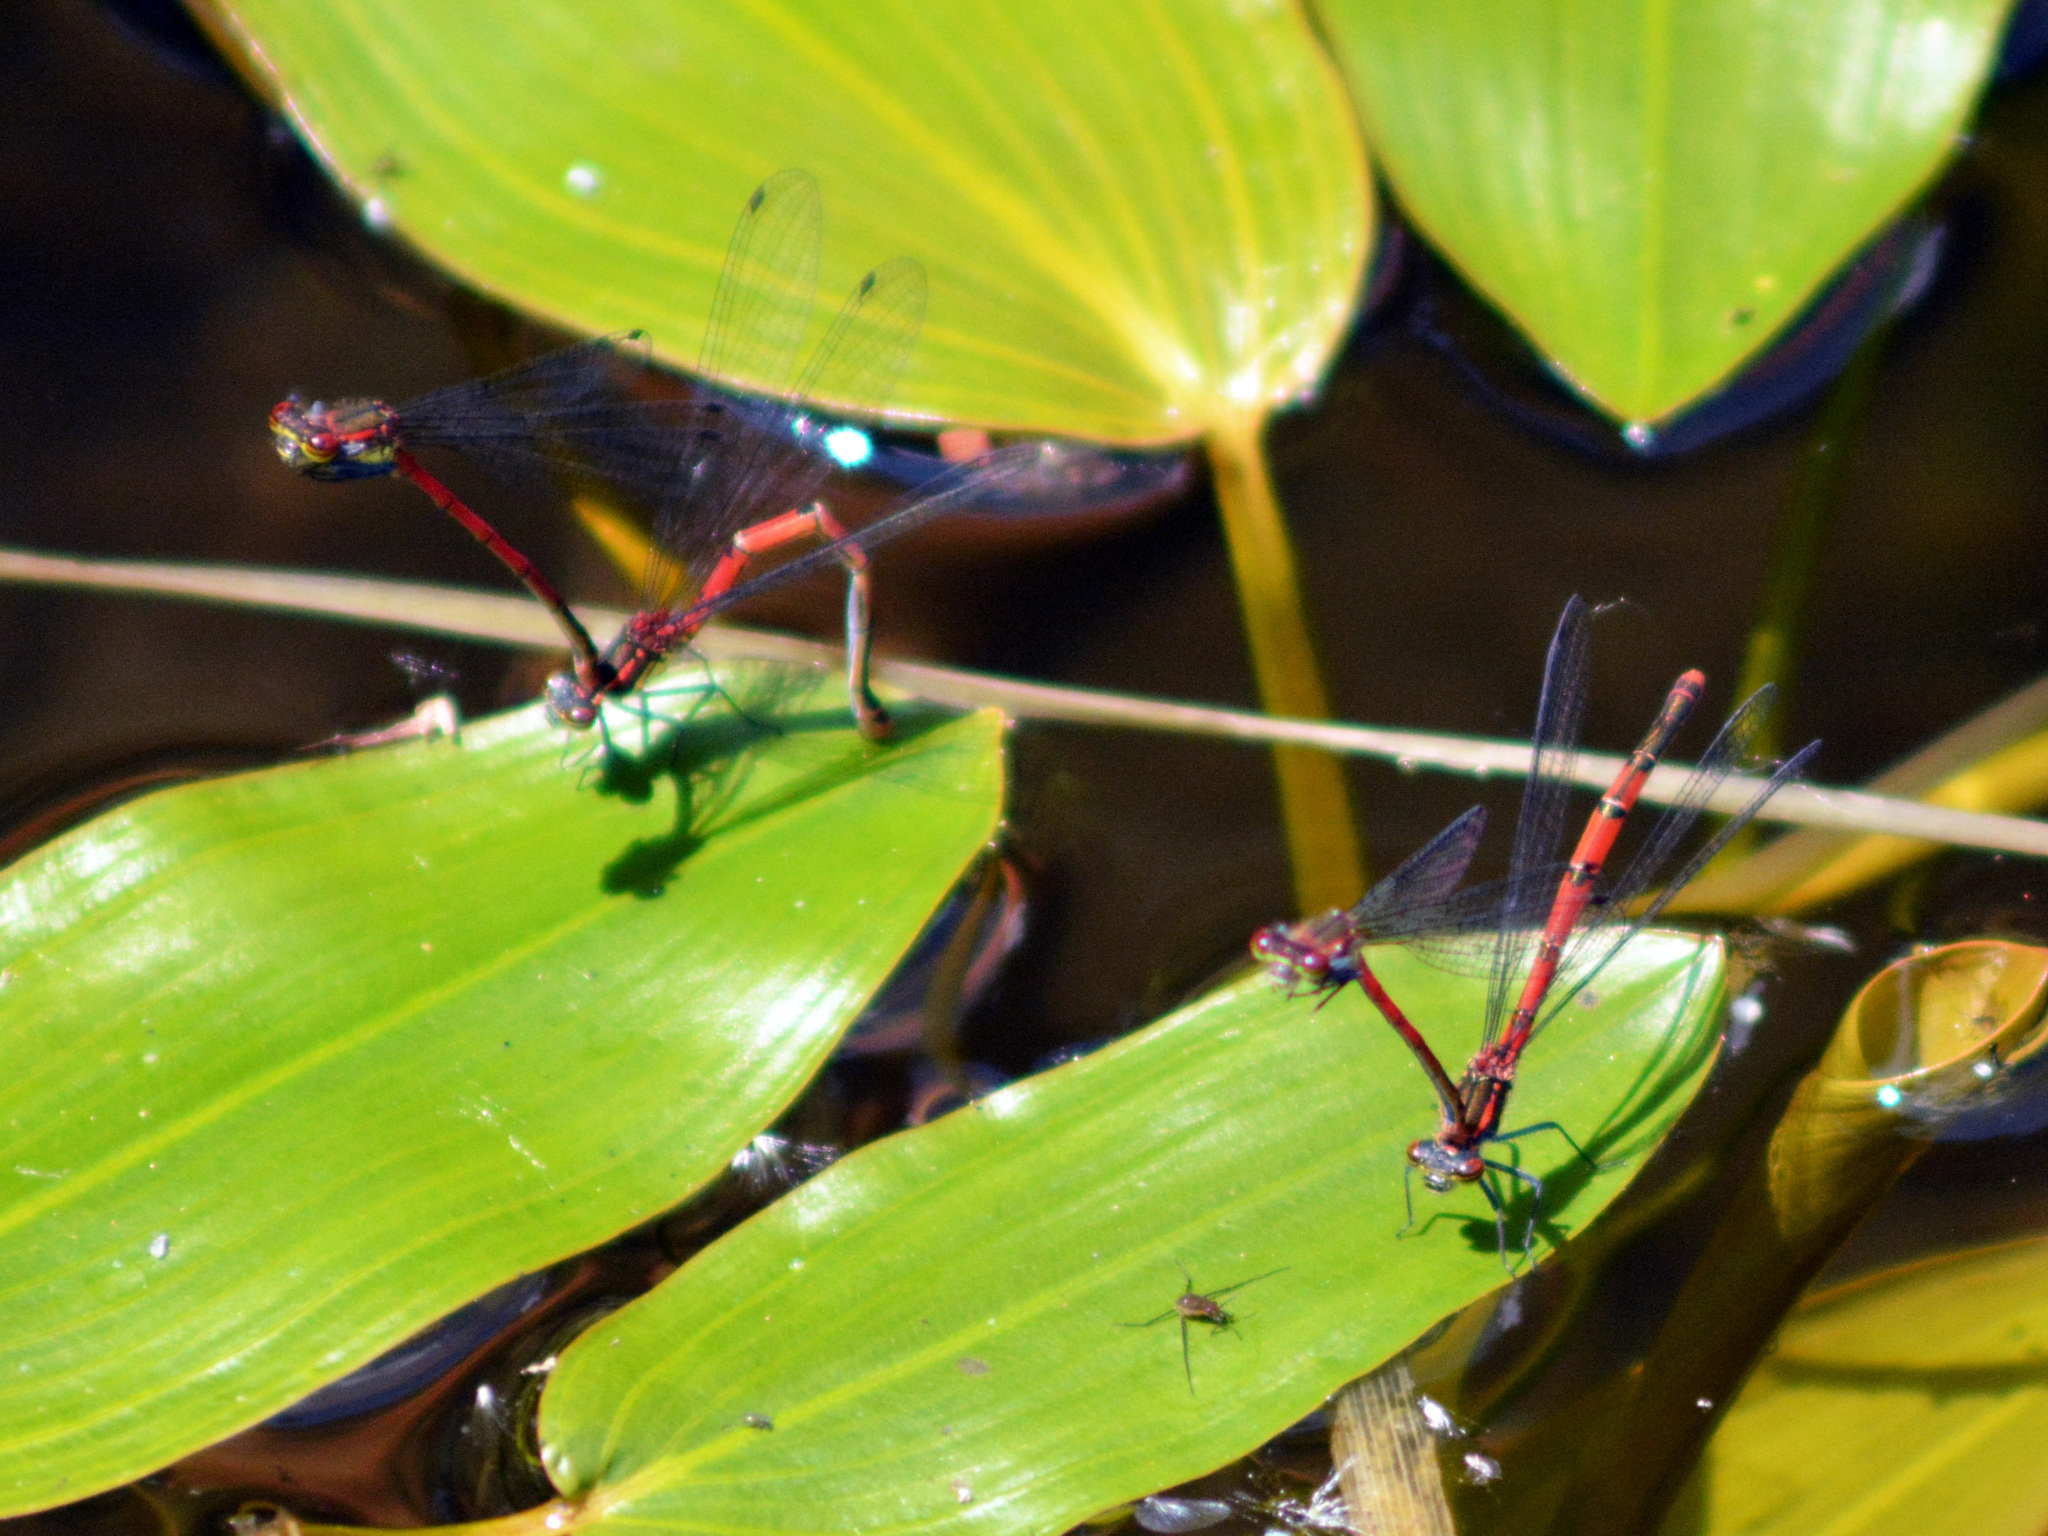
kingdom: Animalia
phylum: Arthropoda
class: Insecta
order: Odonata
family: Coenagrionidae
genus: Pyrrhosoma
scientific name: Pyrrhosoma nymphula
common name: Large red damsel
